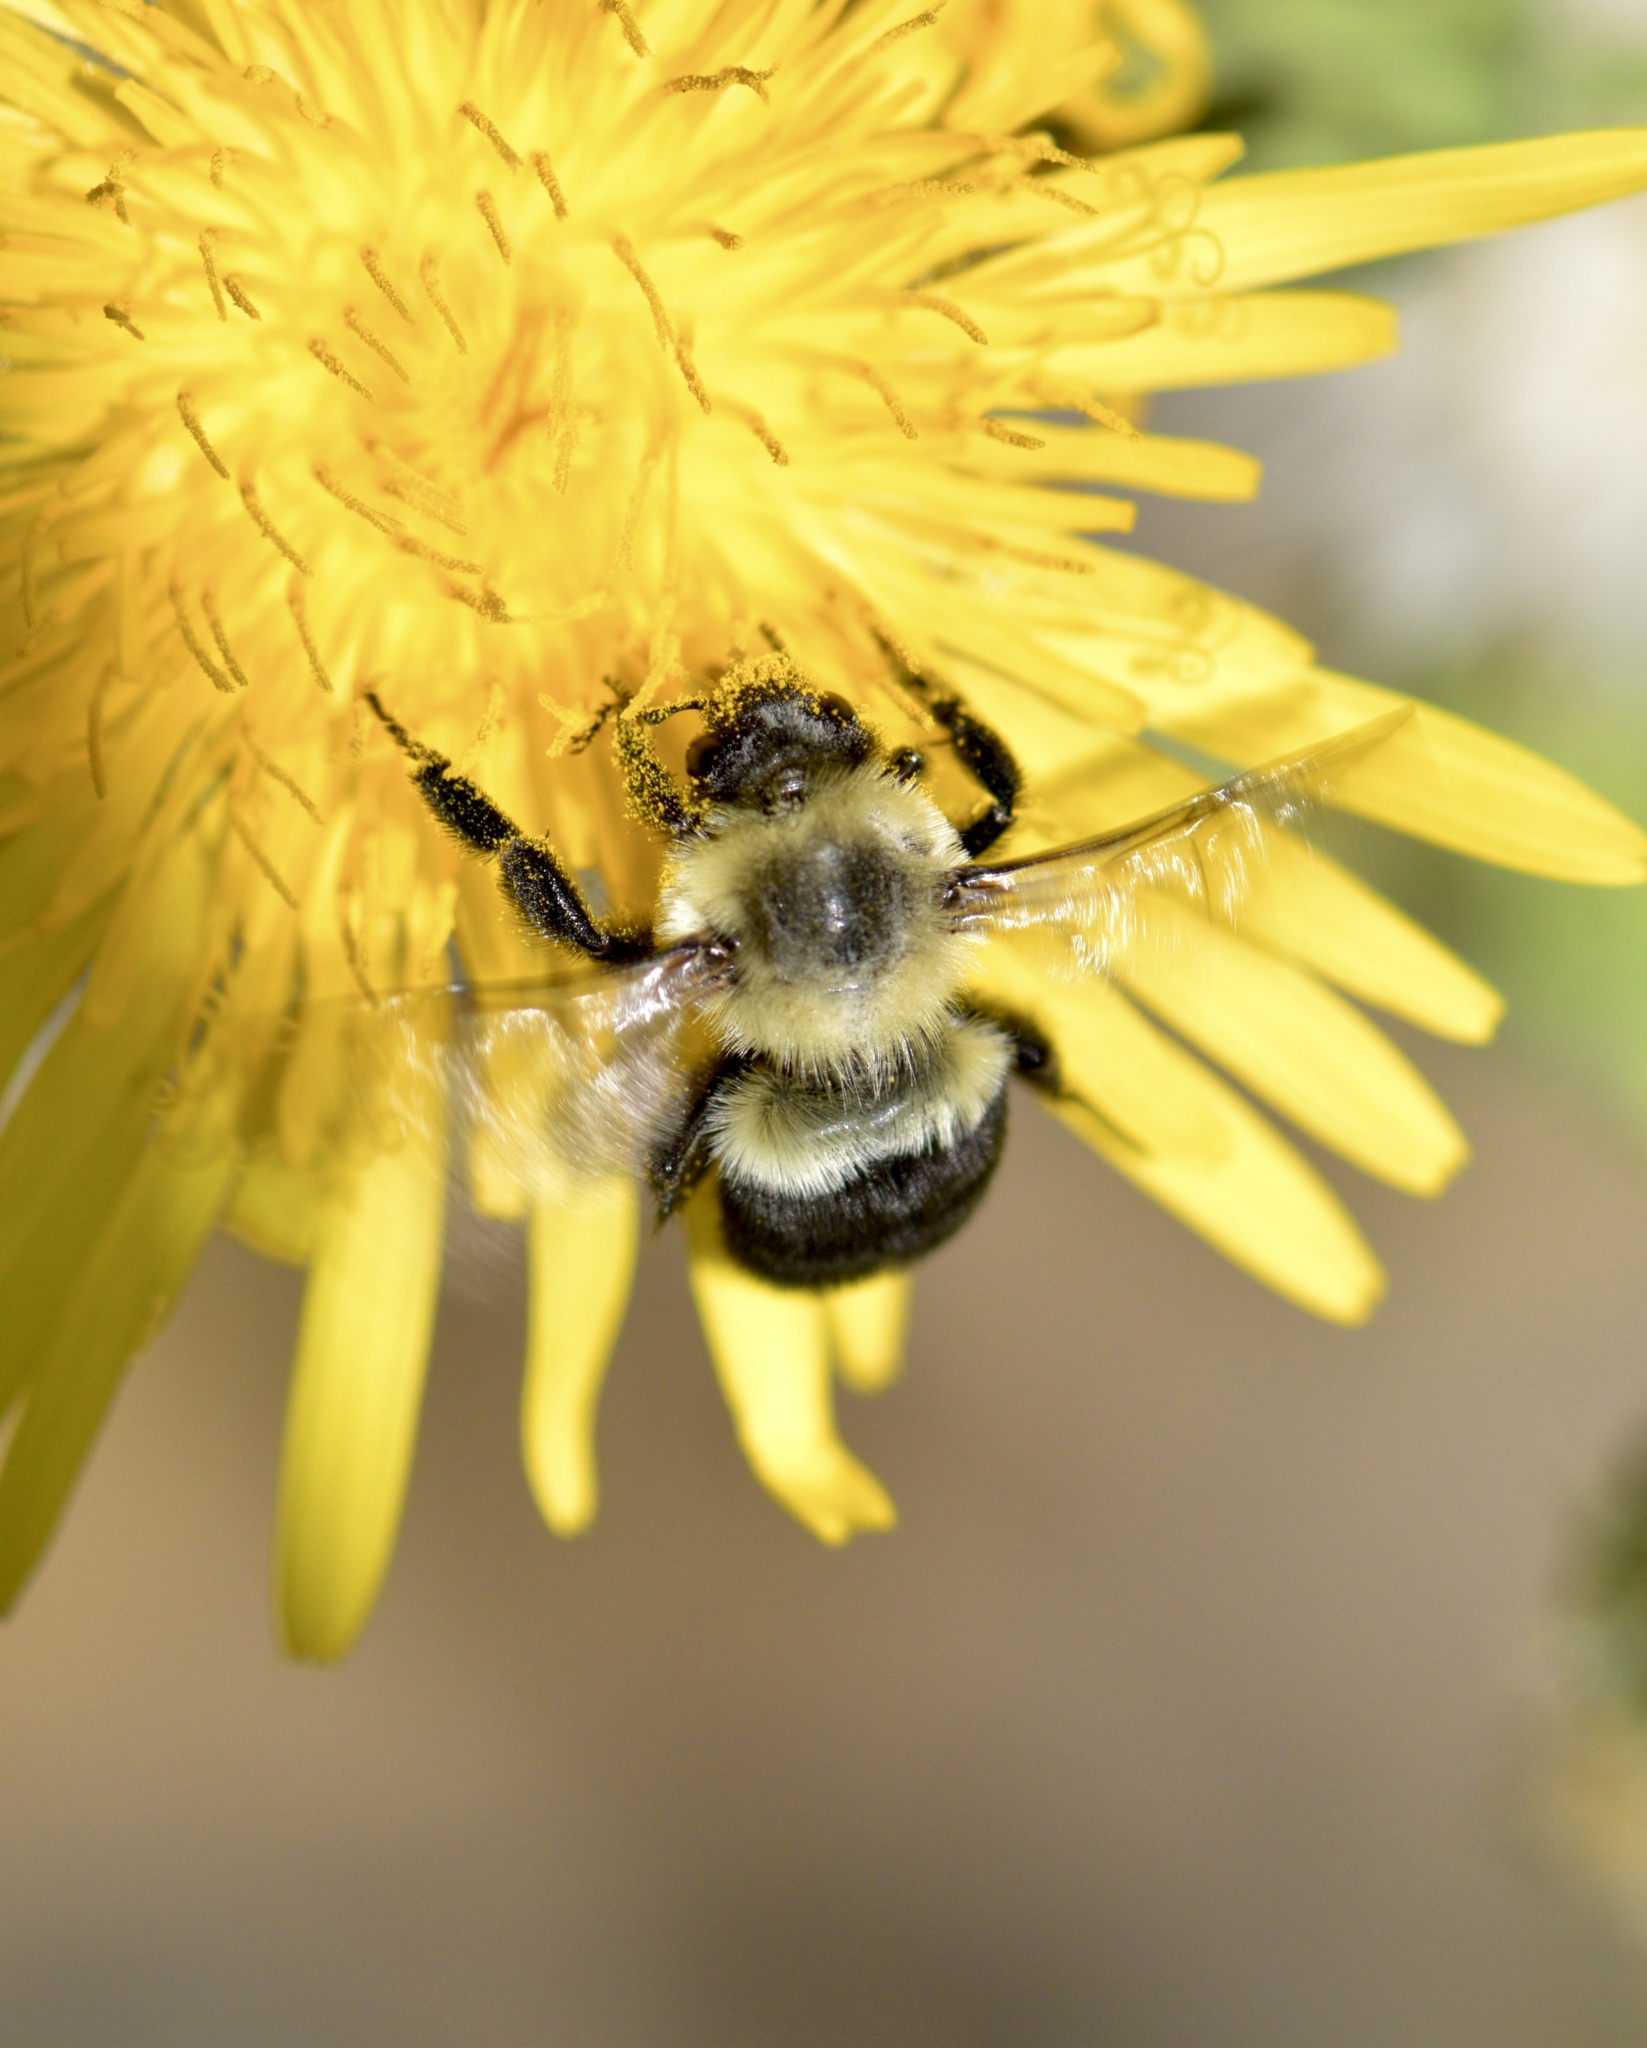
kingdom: Animalia
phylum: Arthropoda
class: Insecta
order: Hymenoptera
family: Apidae
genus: Bombus
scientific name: Bombus impatiens
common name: Common eastern bumble bee
